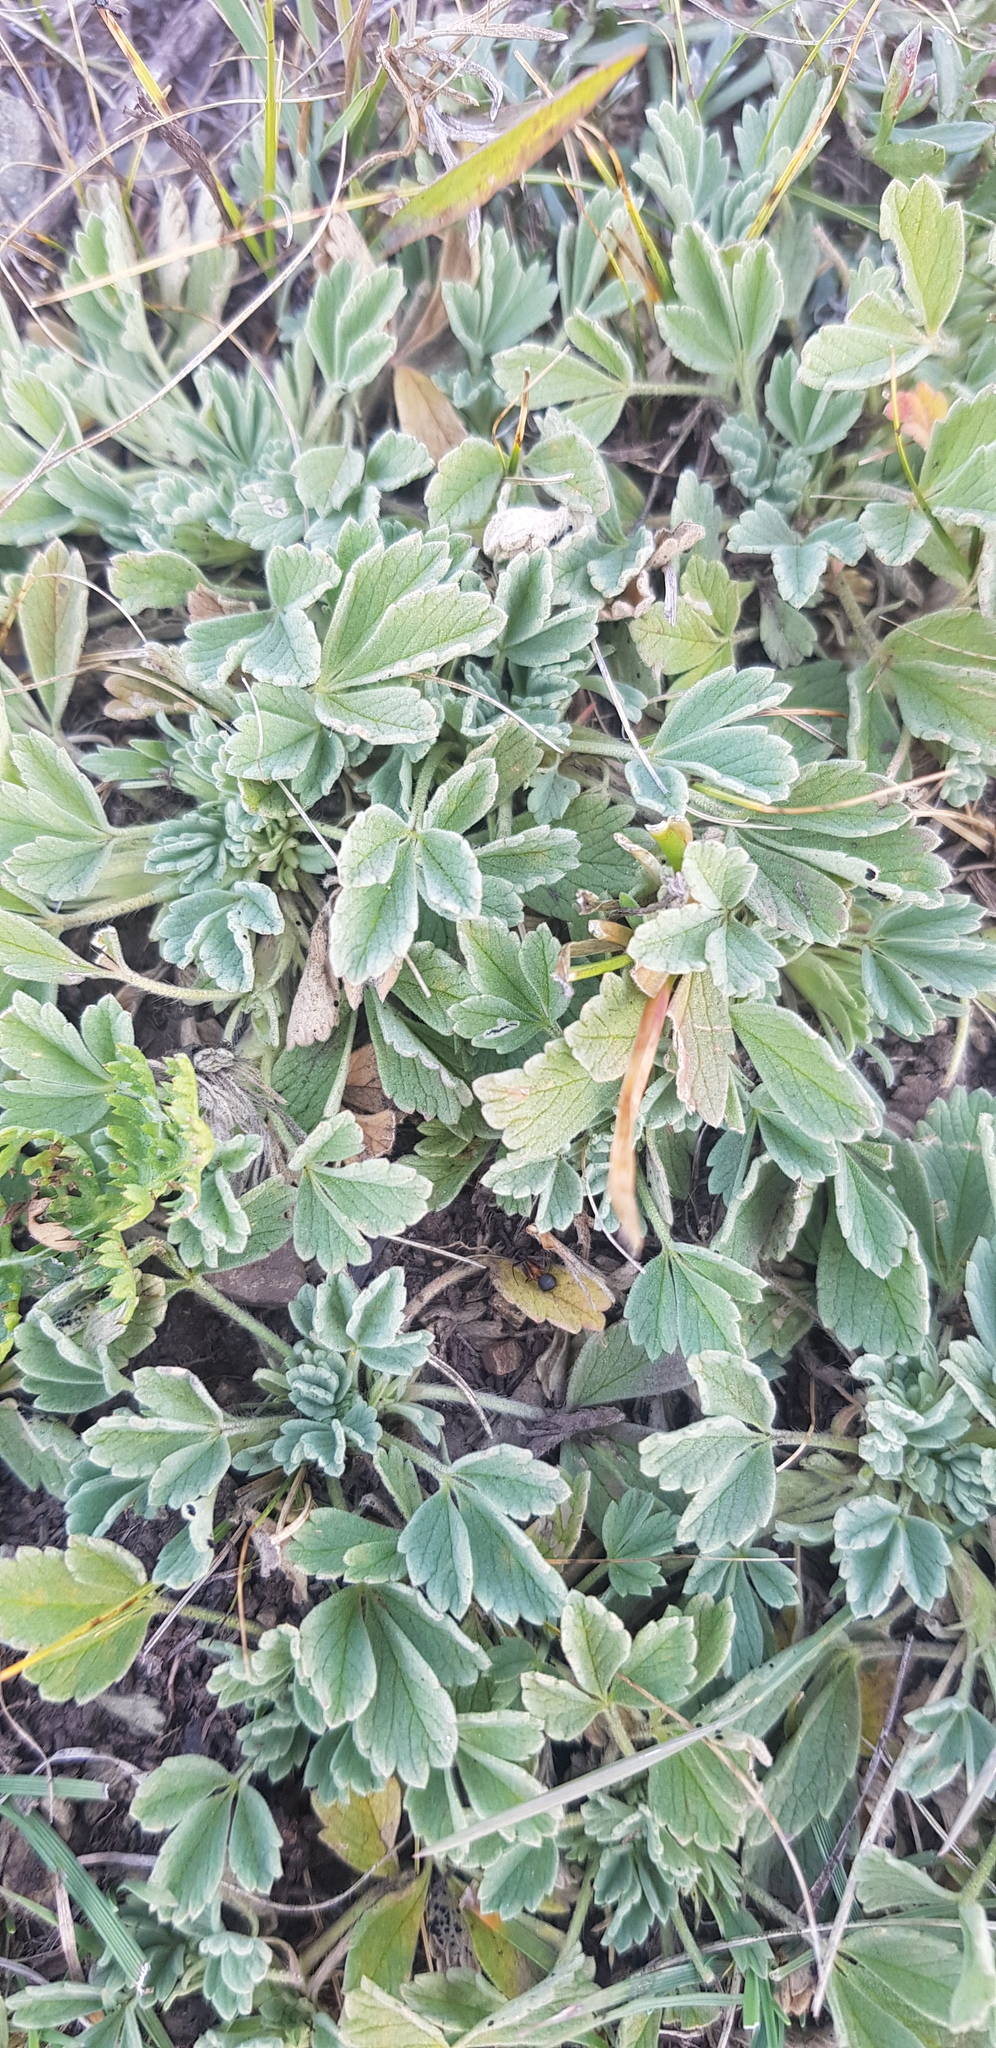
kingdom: Plantae
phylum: Tracheophyta
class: Magnoliopsida
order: Rosales
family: Rosaceae
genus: Potentilla
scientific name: Potentilla acaulis
